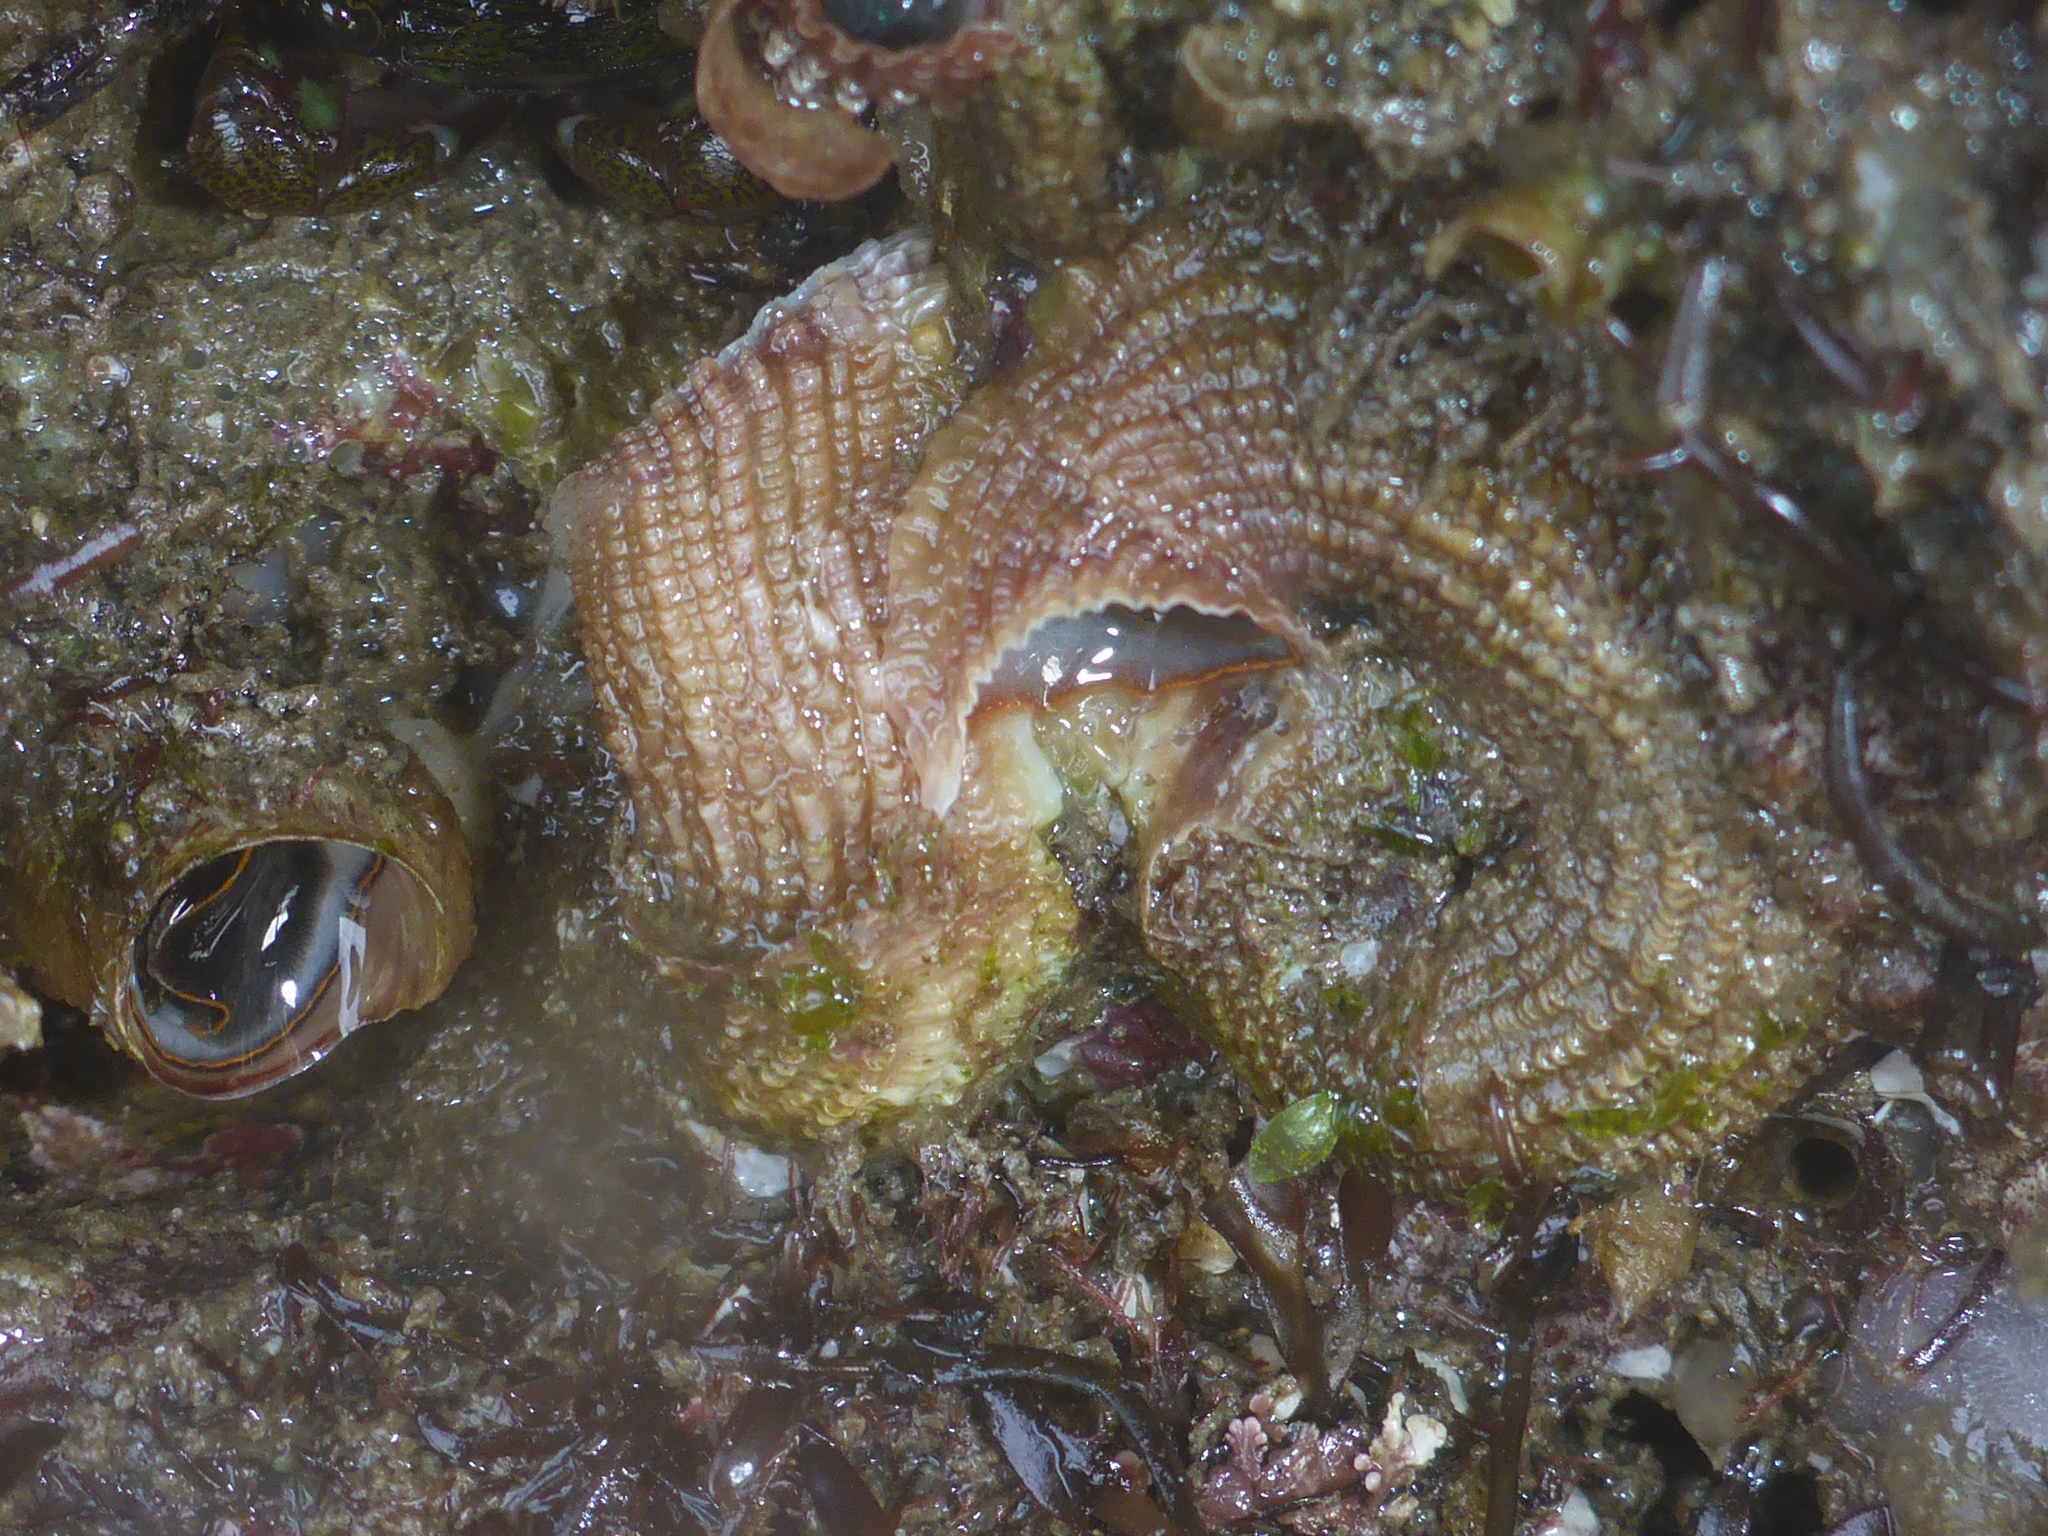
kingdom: Animalia
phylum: Mollusca
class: Gastropoda
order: Littorinimorpha
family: Vermetidae
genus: Thylacodes
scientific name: Thylacodes squamigerus
